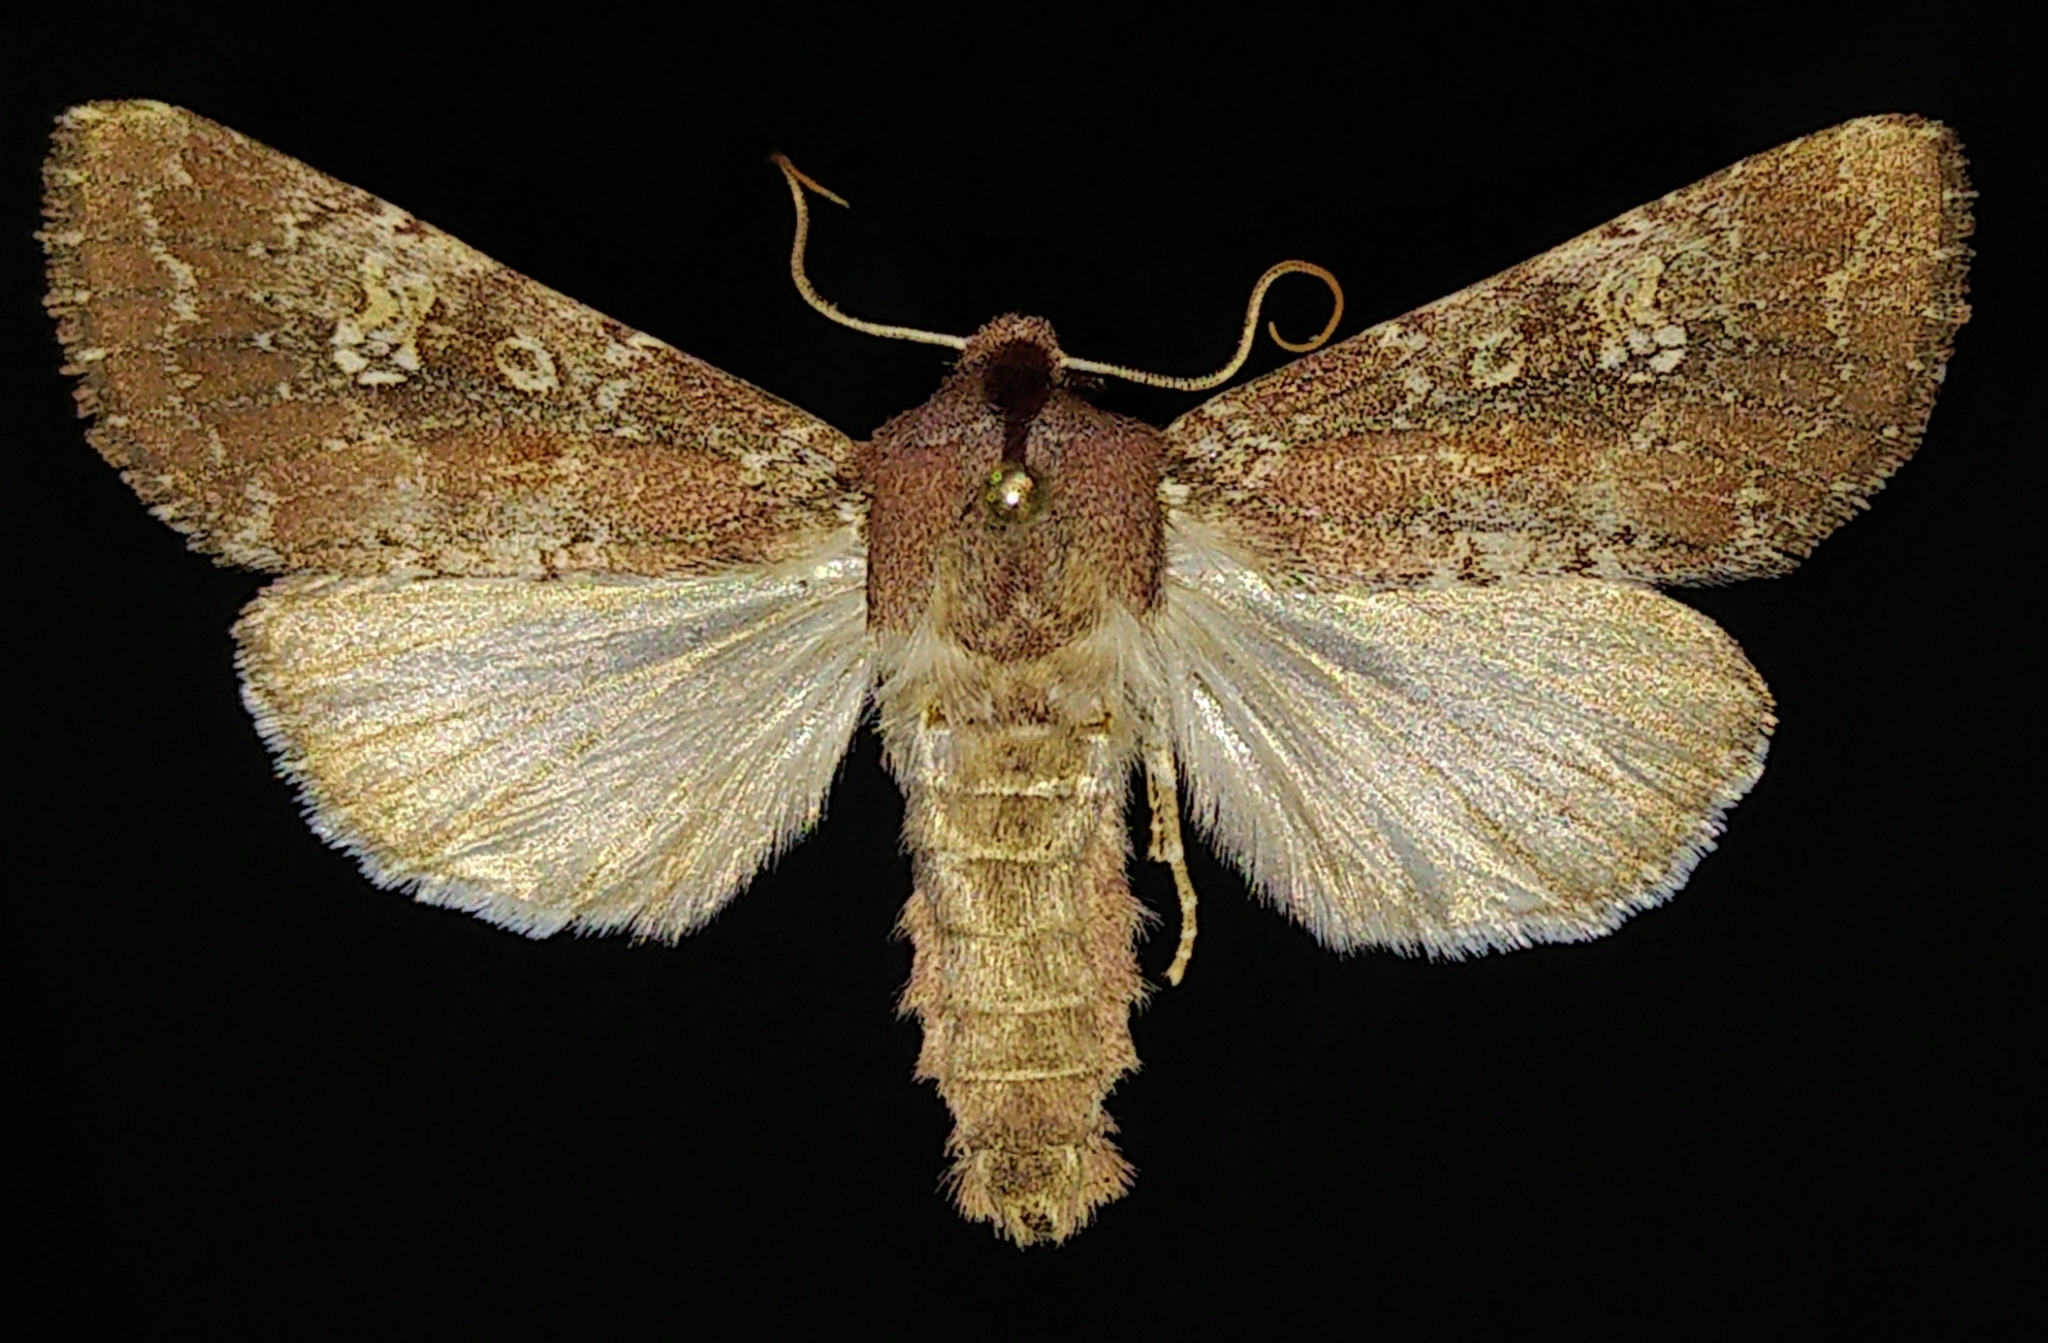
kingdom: Animalia
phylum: Arthropoda
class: Insecta
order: Lepidoptera
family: Noctuidae
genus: Sideridis
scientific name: Sideridis artesta
